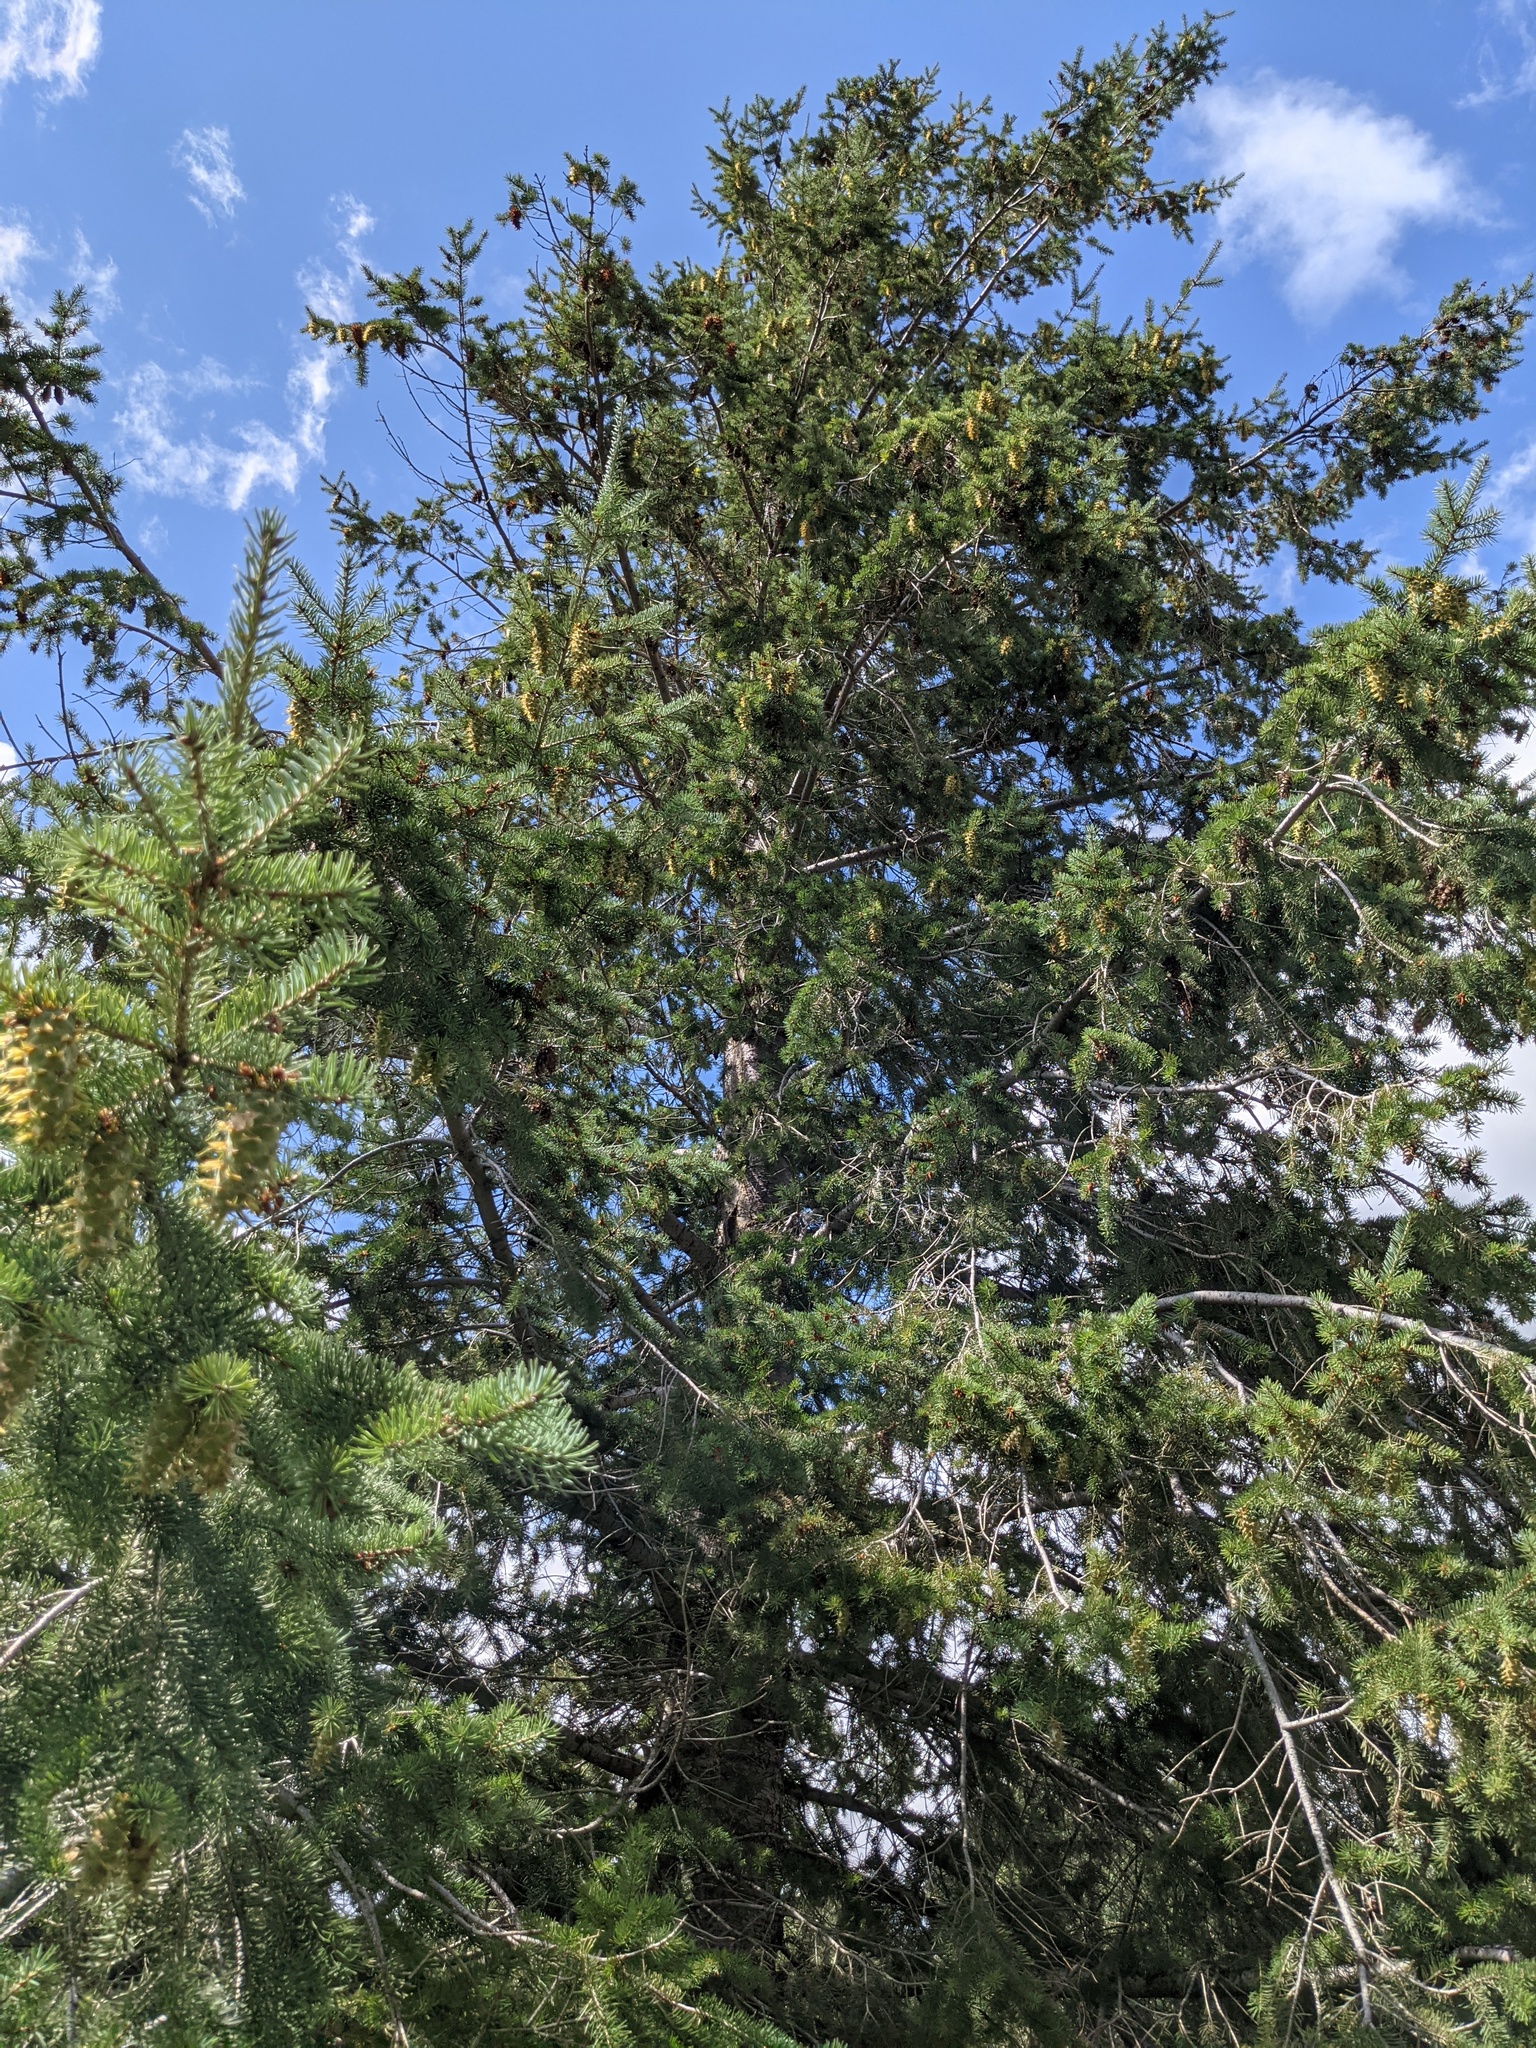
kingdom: Plantae
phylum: Tracheophyta
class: Pinopsida
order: Pinales
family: Pinaceae
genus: Pseudotsuga
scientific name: Pseudotsuga menziesii
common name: Douglas fir
